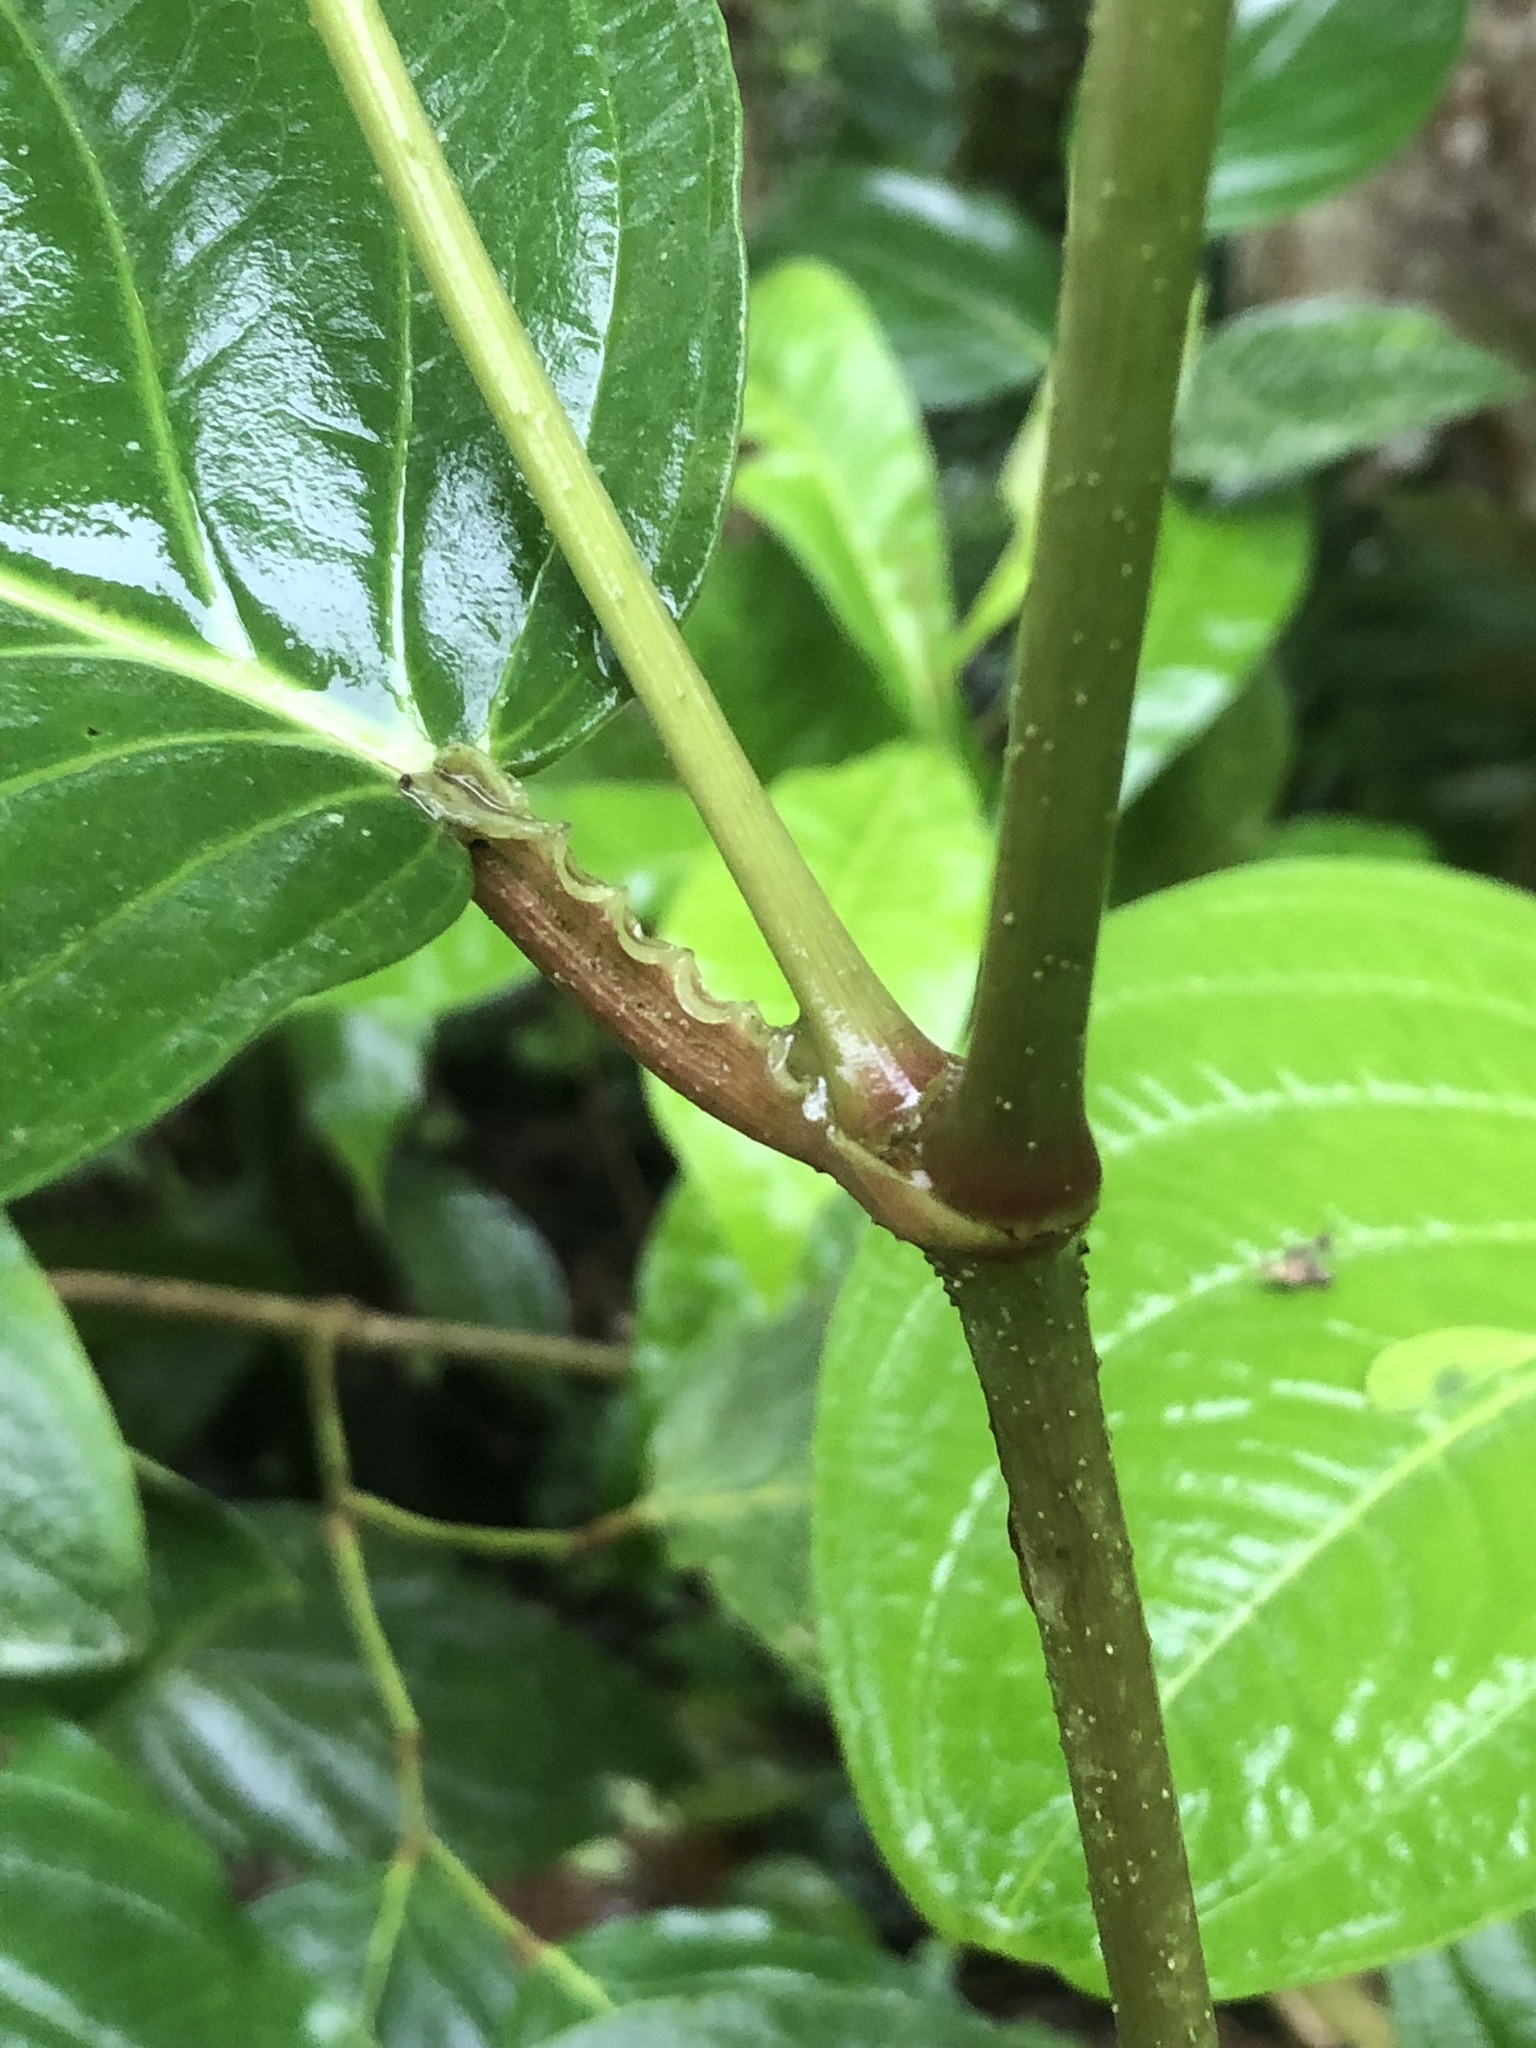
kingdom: Plantae
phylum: Tracheophyta
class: Magnoliopsida
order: Piperales
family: Piperaceae
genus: Piper
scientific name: Piper carpunya
